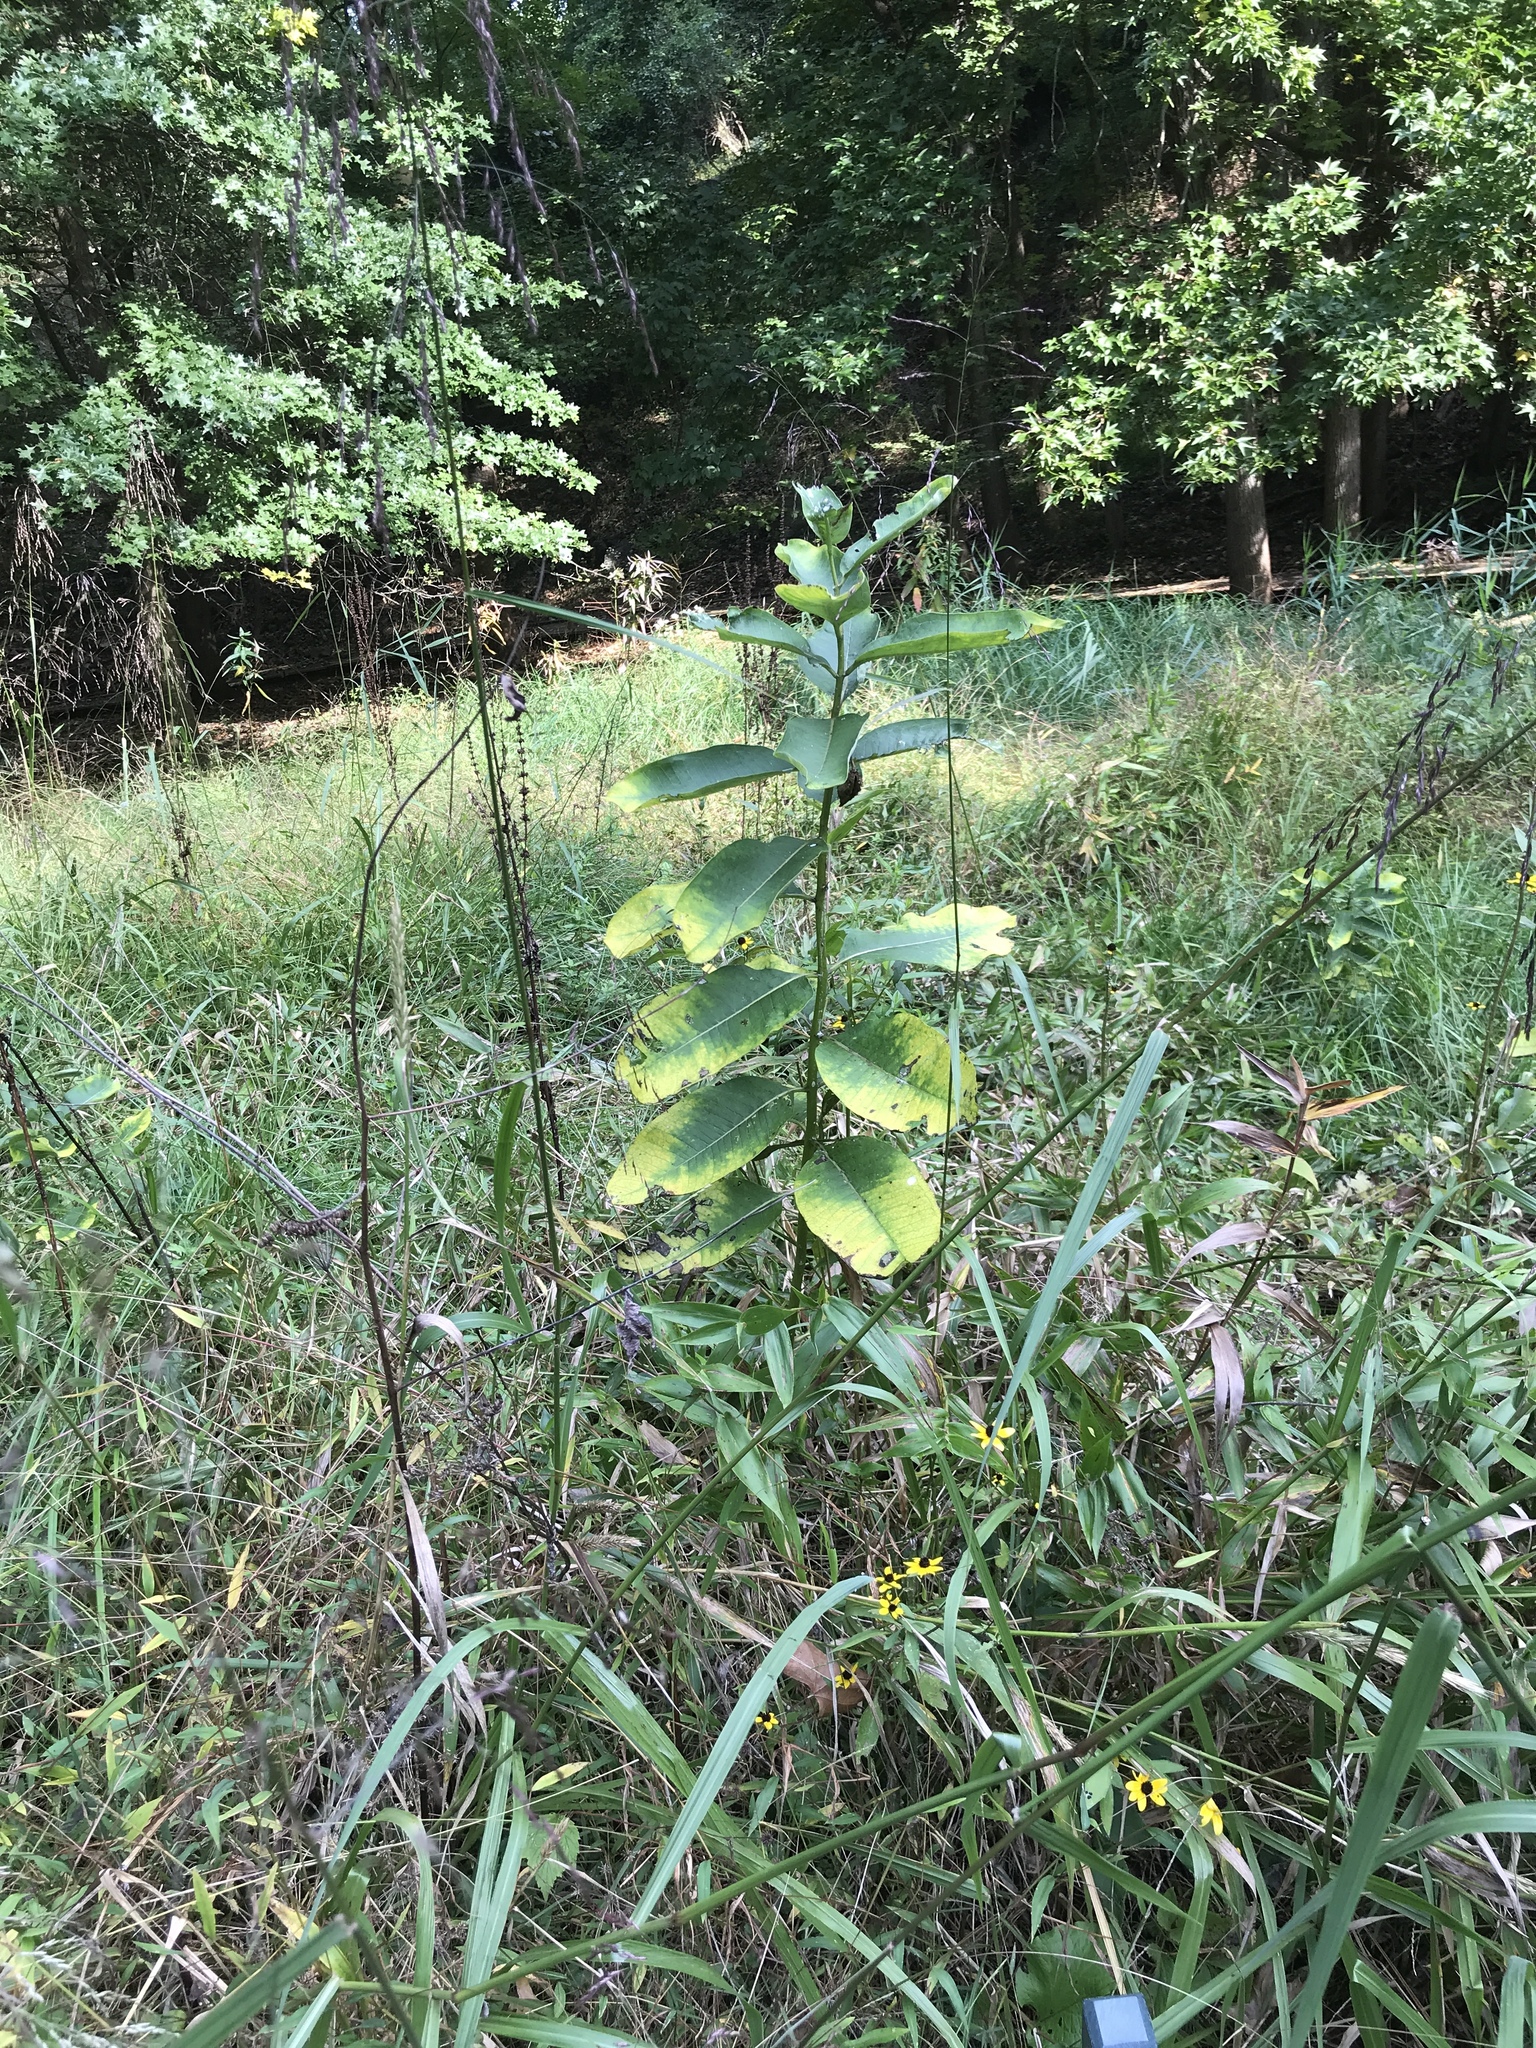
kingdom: Plantae
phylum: Tracheophyta
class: Magnoliopsida
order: Gentianales
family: Apocynaceae
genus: Asclepias
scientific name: Asclepias syriaca
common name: Common milkweed
